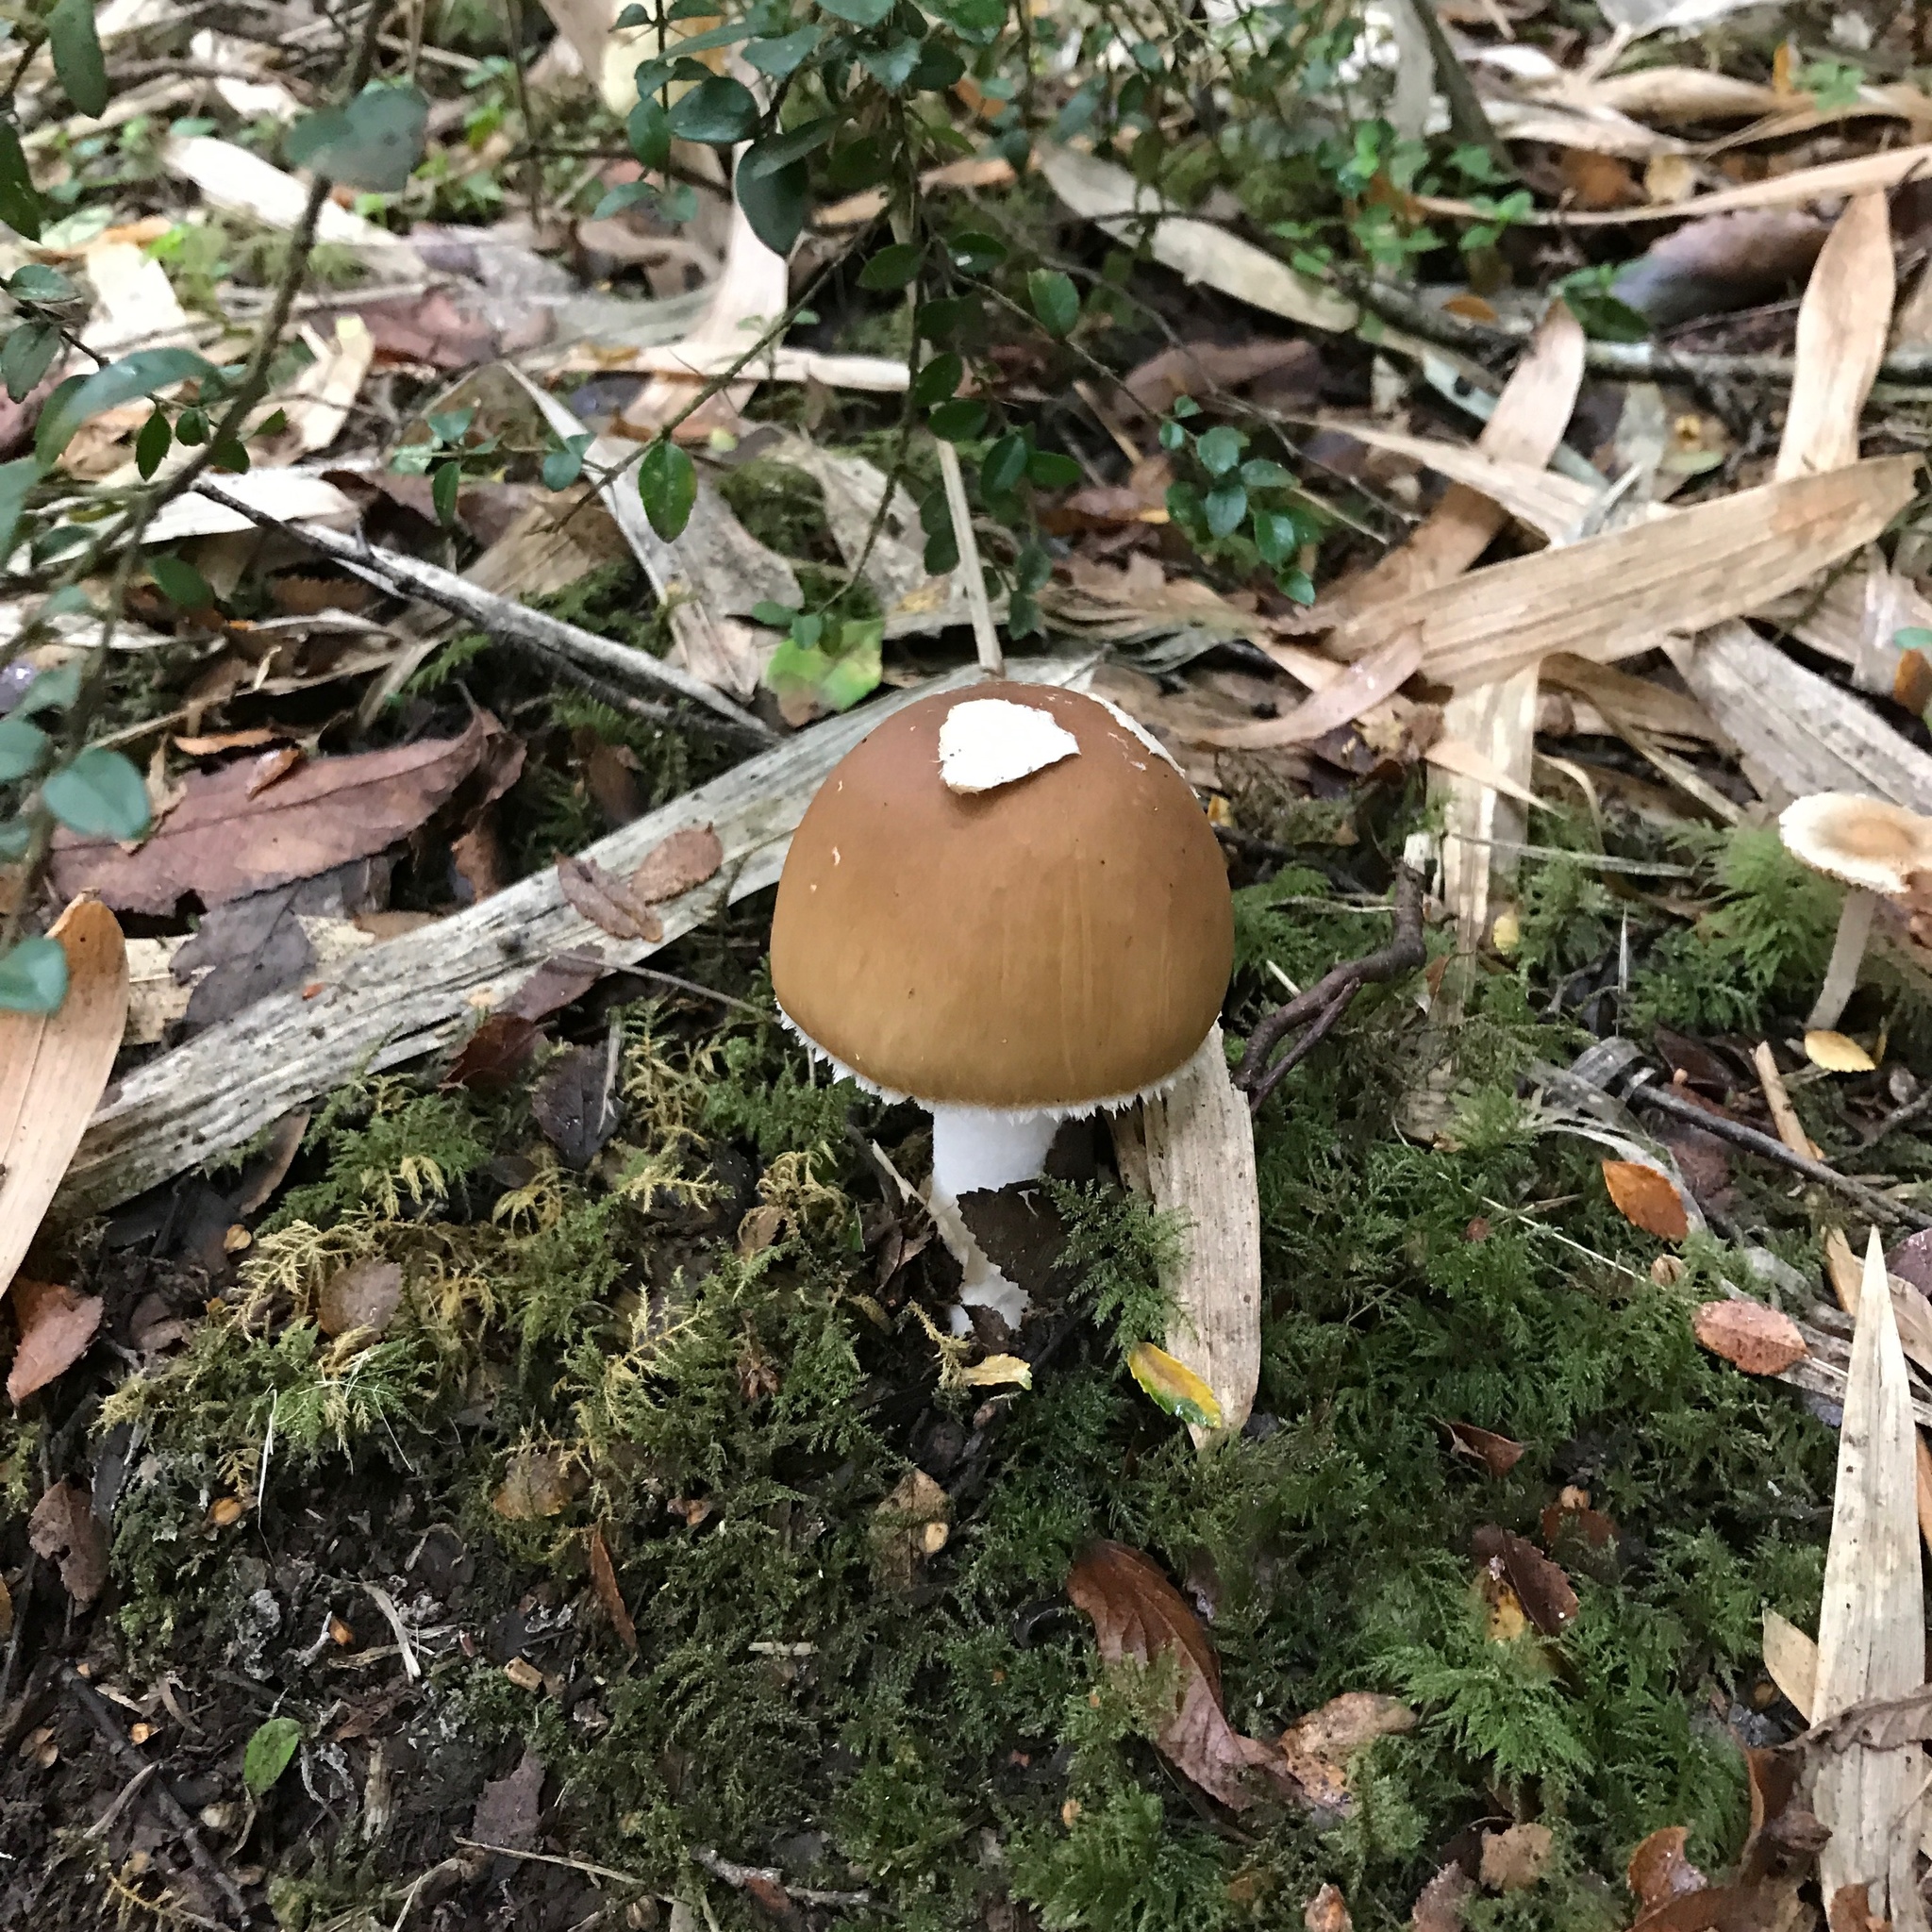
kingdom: Fungi
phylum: Basidiomycota
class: Agaricomycetes
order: Agaricales
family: Amanitaceae
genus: Amanita
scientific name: Amanita diemii
